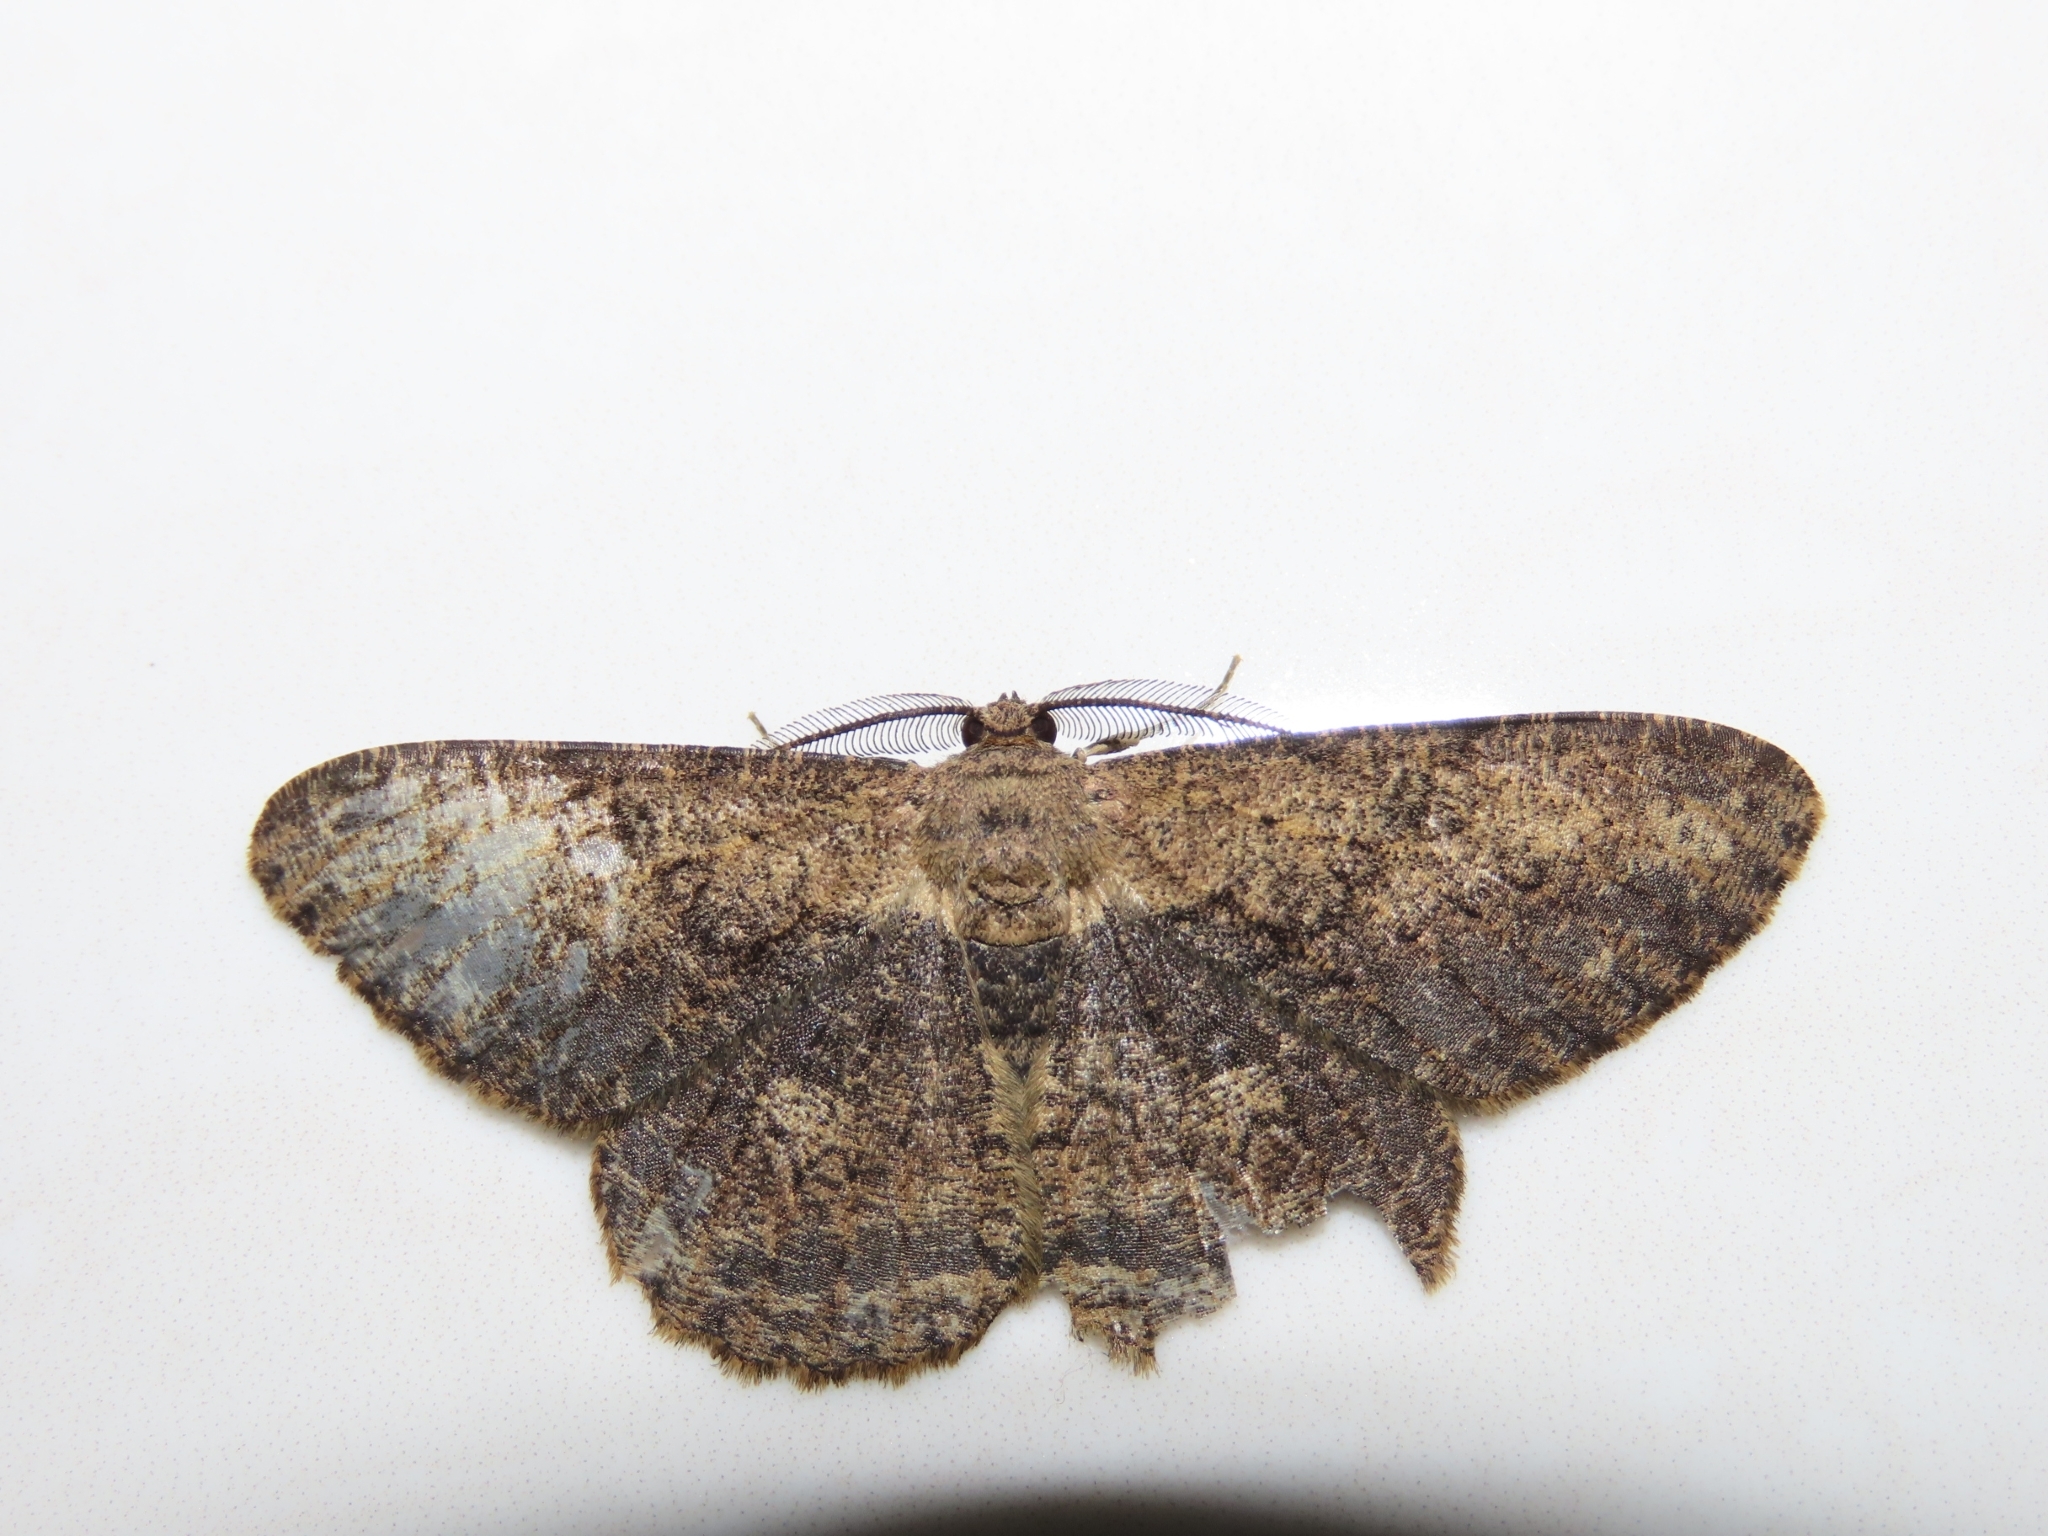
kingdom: Animalia
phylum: Arthropoda
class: Insecta
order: Lepidoptera
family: Geometridae
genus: Hypomecis
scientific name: Hypomecis separata
